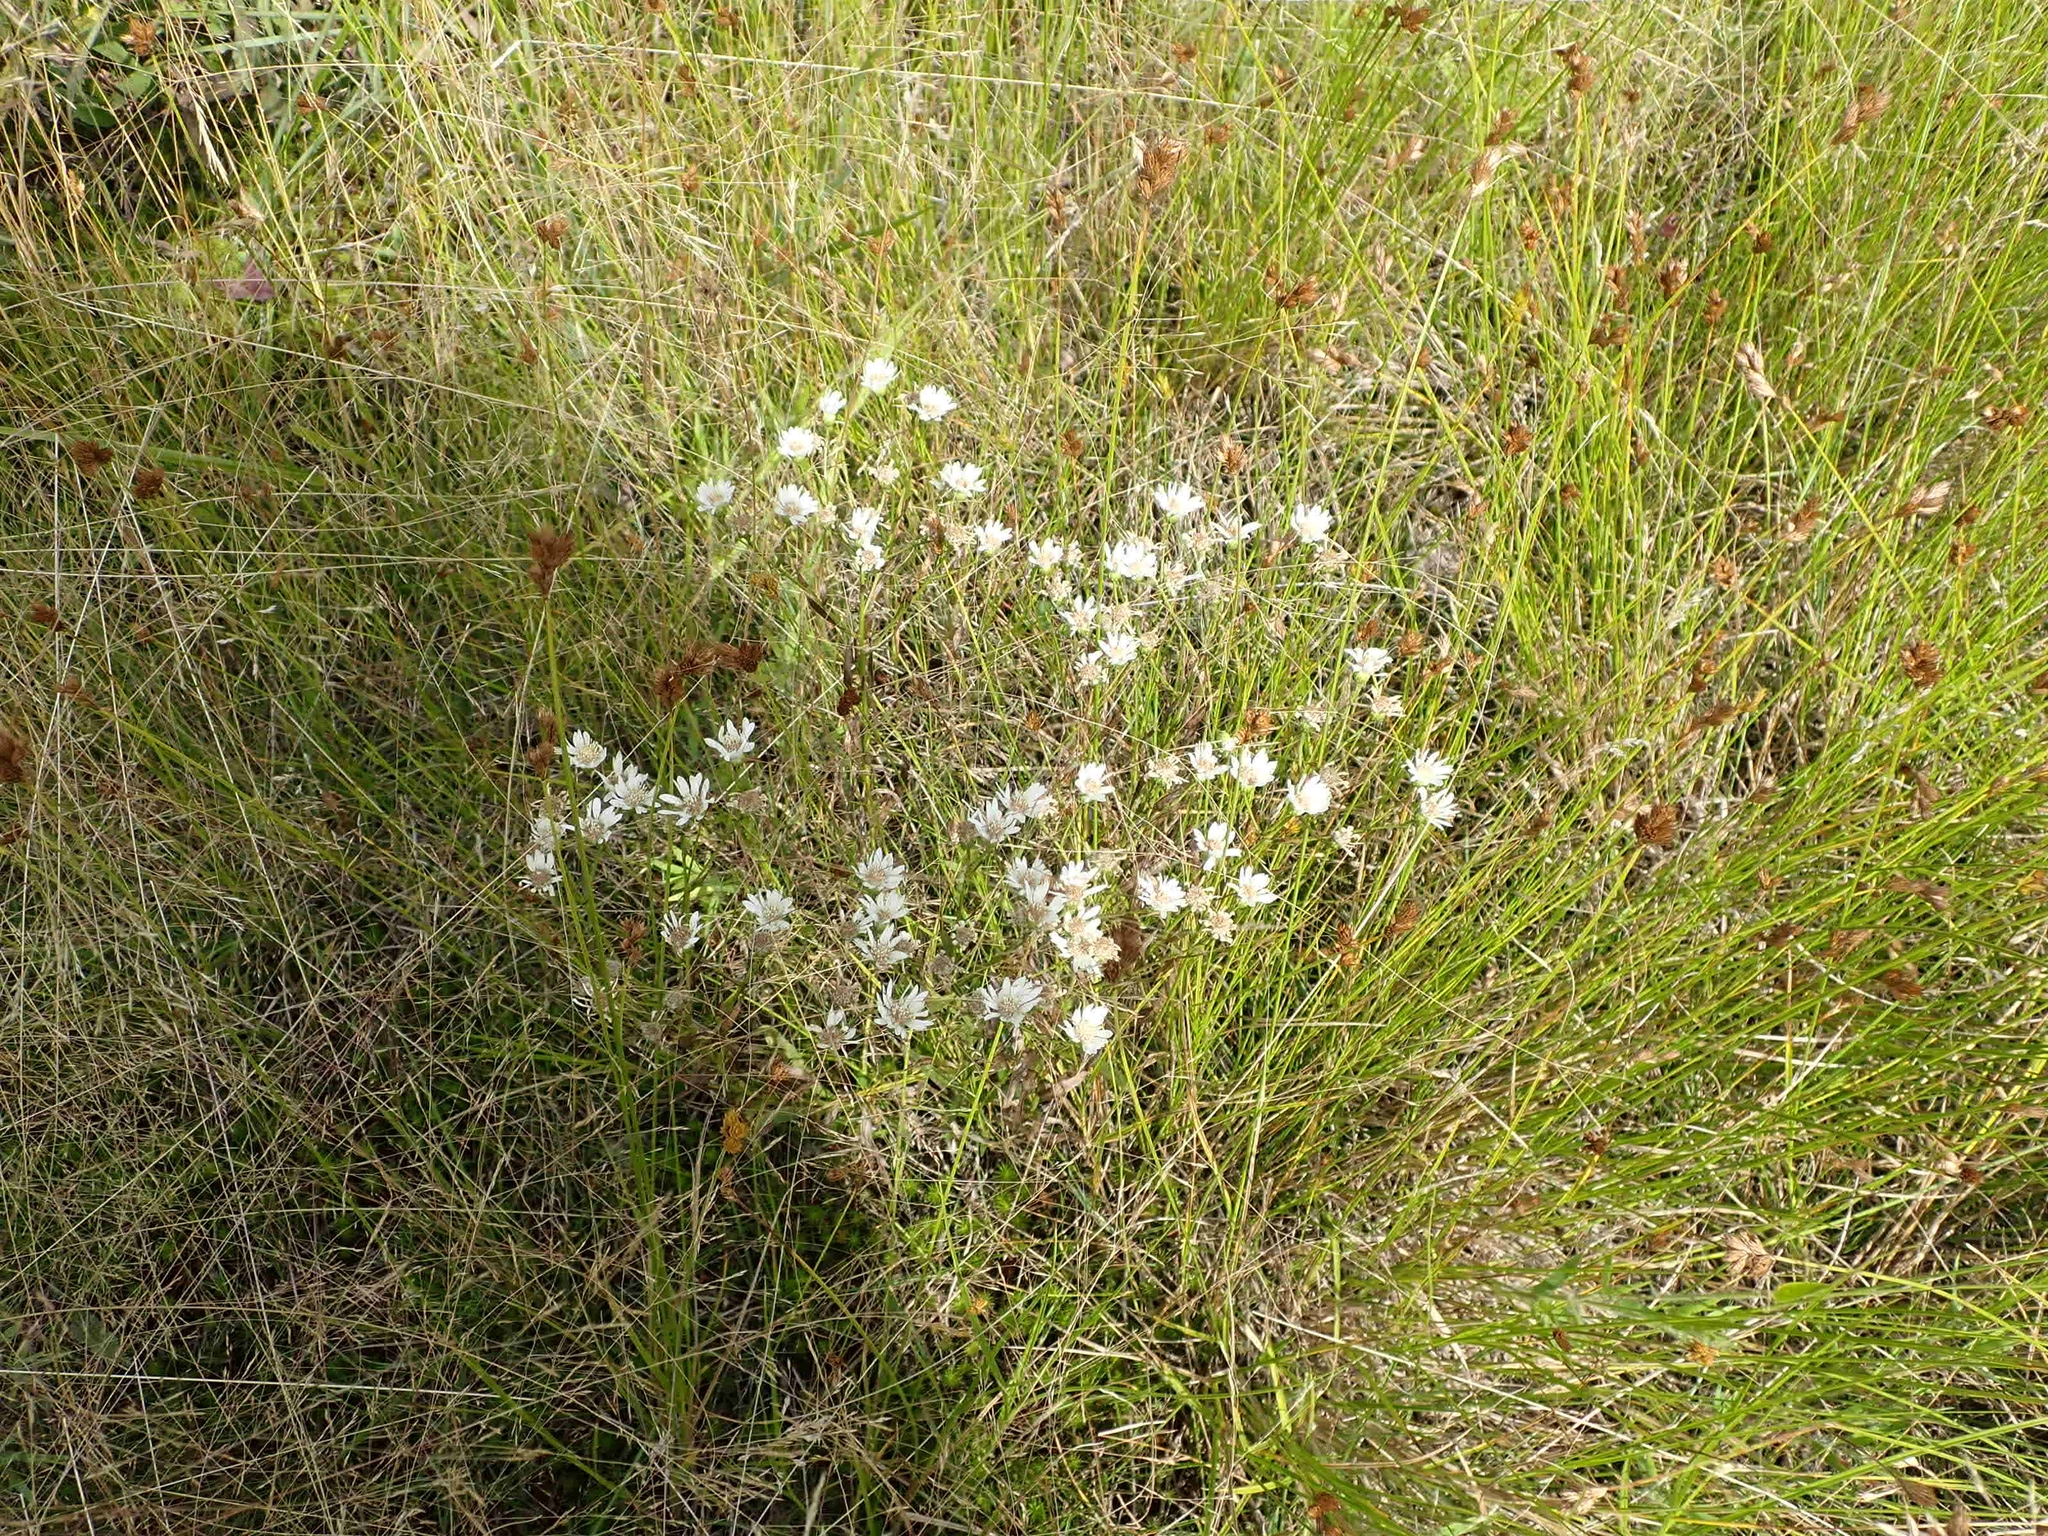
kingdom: Plantae
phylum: Tracheophyta
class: Magnoliopsida
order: Asterales
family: Asteraceae
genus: Solidago
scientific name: Solidago ptarmicoides
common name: White flat-top goldenrod
